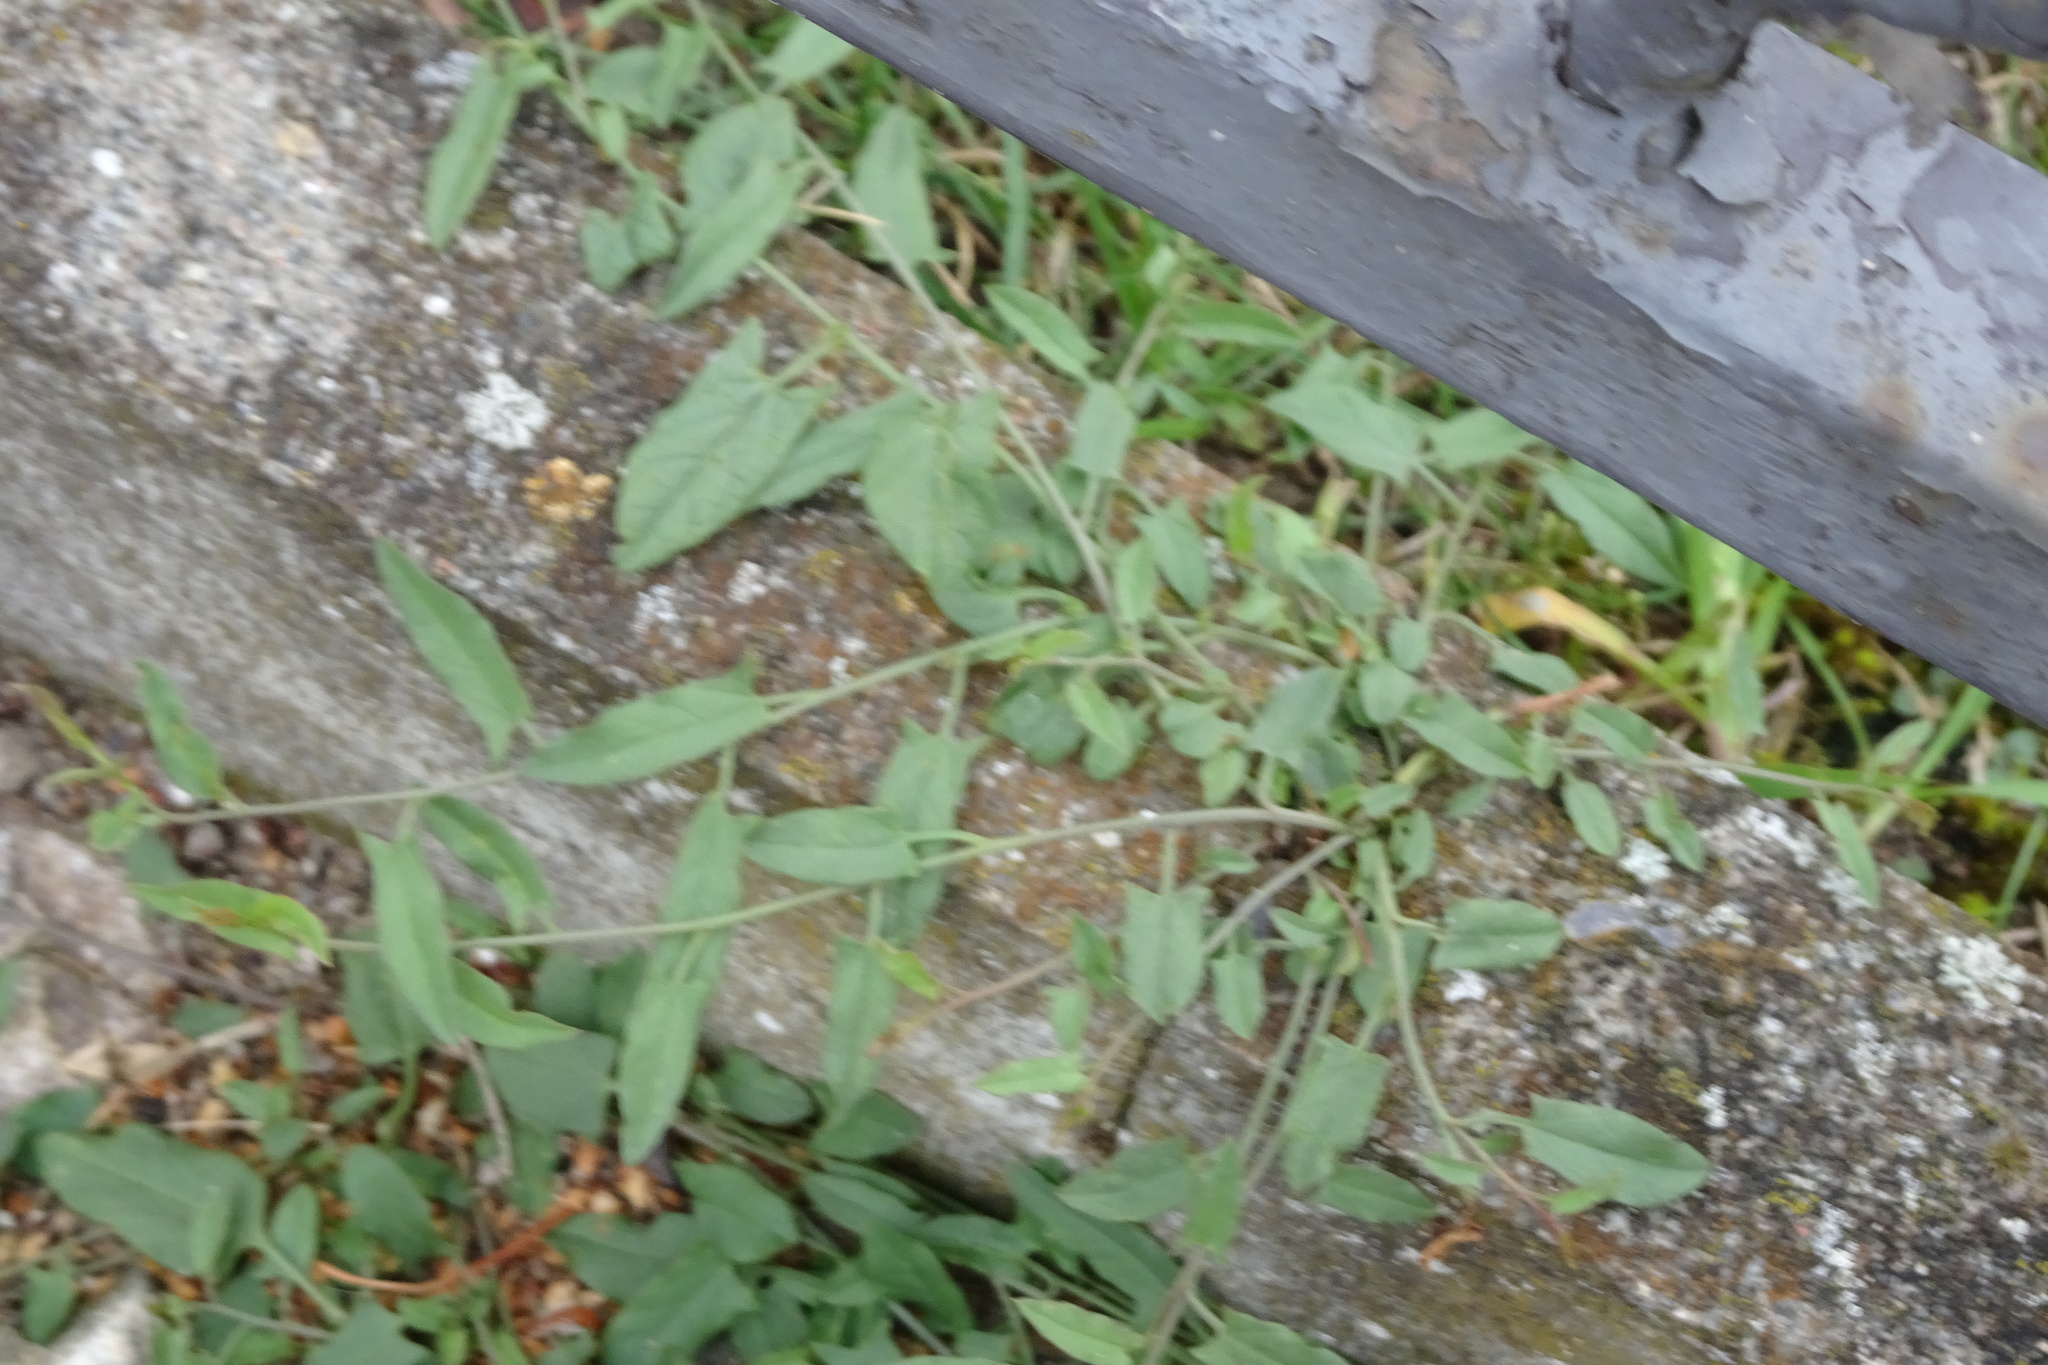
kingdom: Plantae
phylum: Tracheophyta
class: Magnoliopsida
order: Solanales
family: Convolvulaceae
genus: Convolvulus
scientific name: Convolvulus arvensis
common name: Field bindweed
